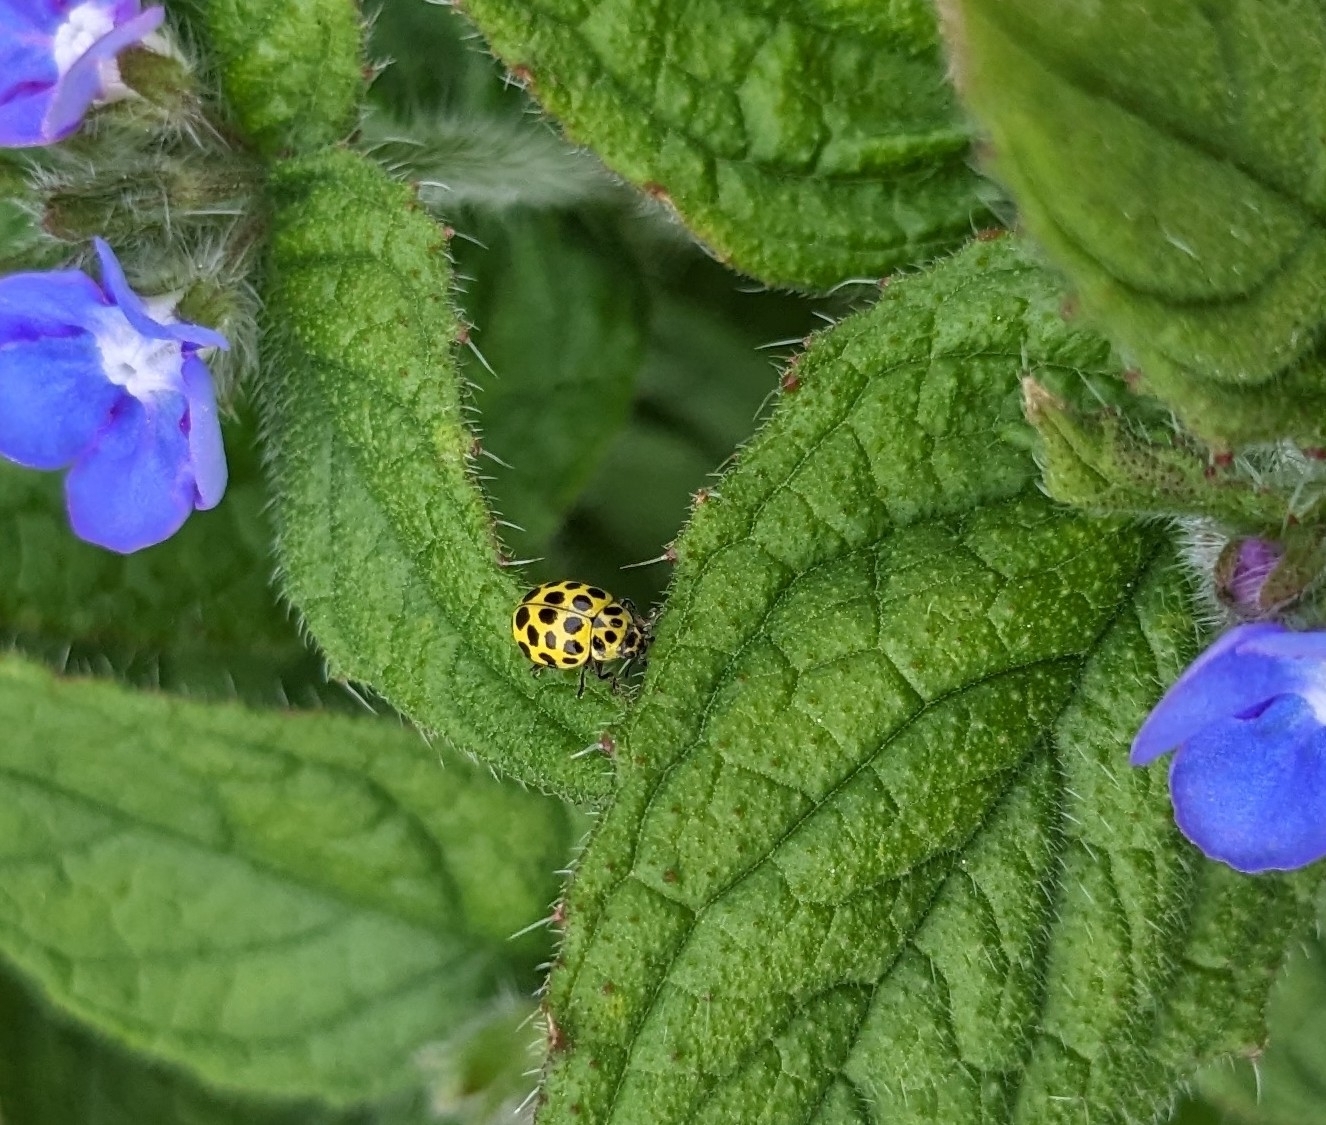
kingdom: Animalia
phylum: Arthropoda
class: Insecta
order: Coleoptera
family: Coccinellidae
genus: Psyllobora
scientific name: Psyllobora vigintiduopunctata
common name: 22-spot ladybird
